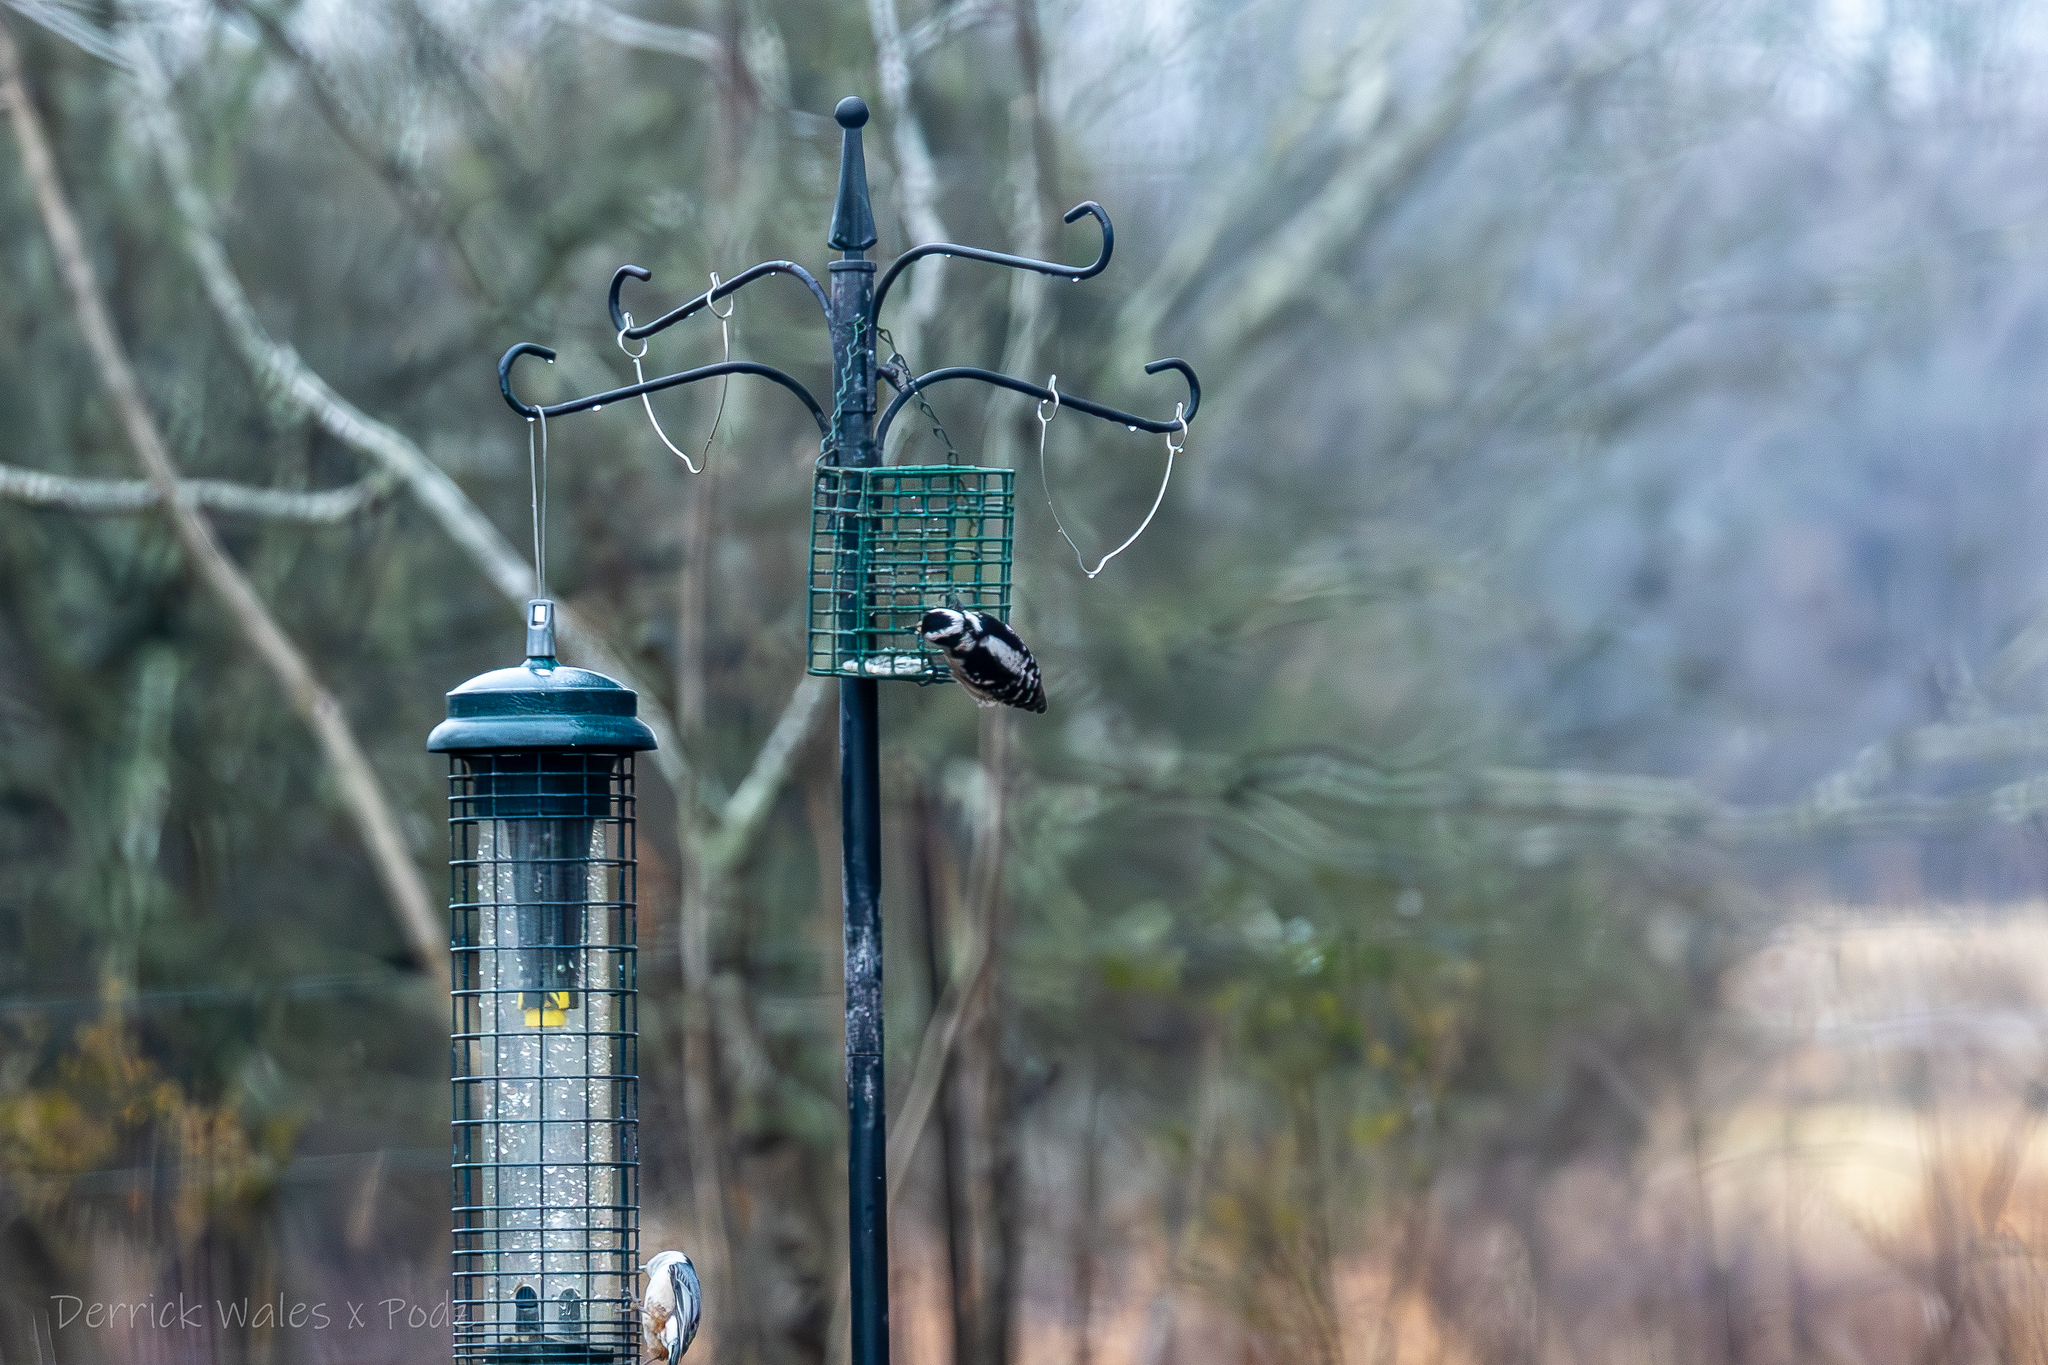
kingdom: Animalia
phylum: Chordata
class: Aves
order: Piciformes
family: Picidae
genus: Dryobates
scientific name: Dryobates pubescens
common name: Downy woodpecker
